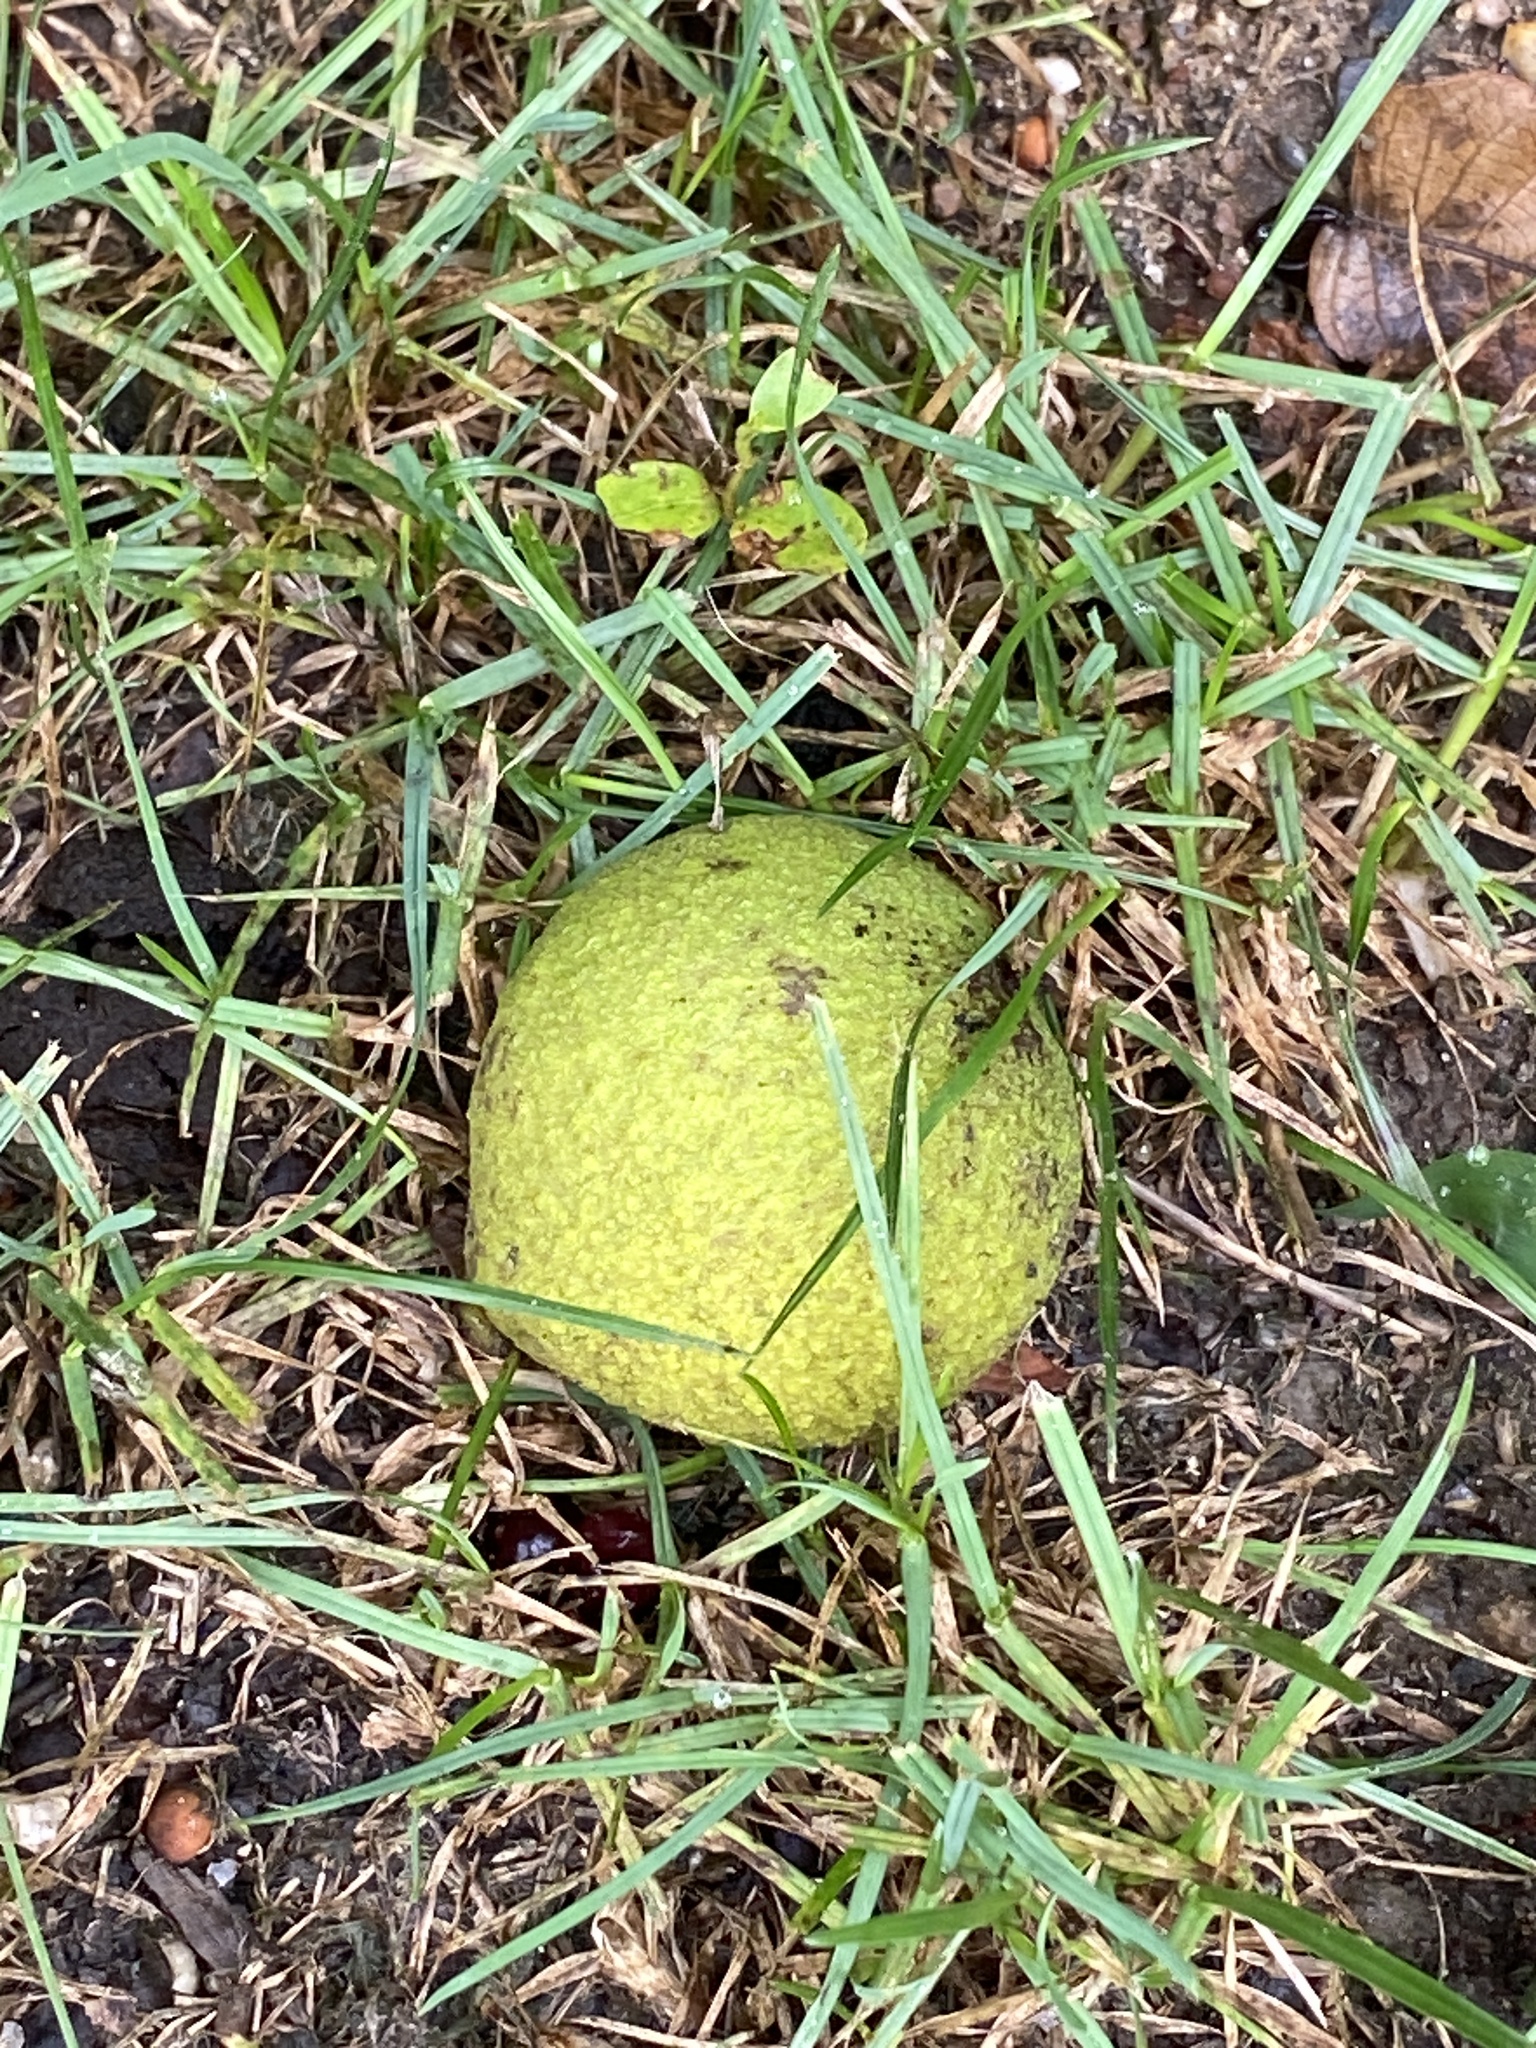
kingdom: Plantae
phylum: Tracheophyta
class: Magnoliopsida
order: Fagales
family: Juglandaceae
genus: Juglans
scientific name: Juglans nigra
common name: Black walnut
